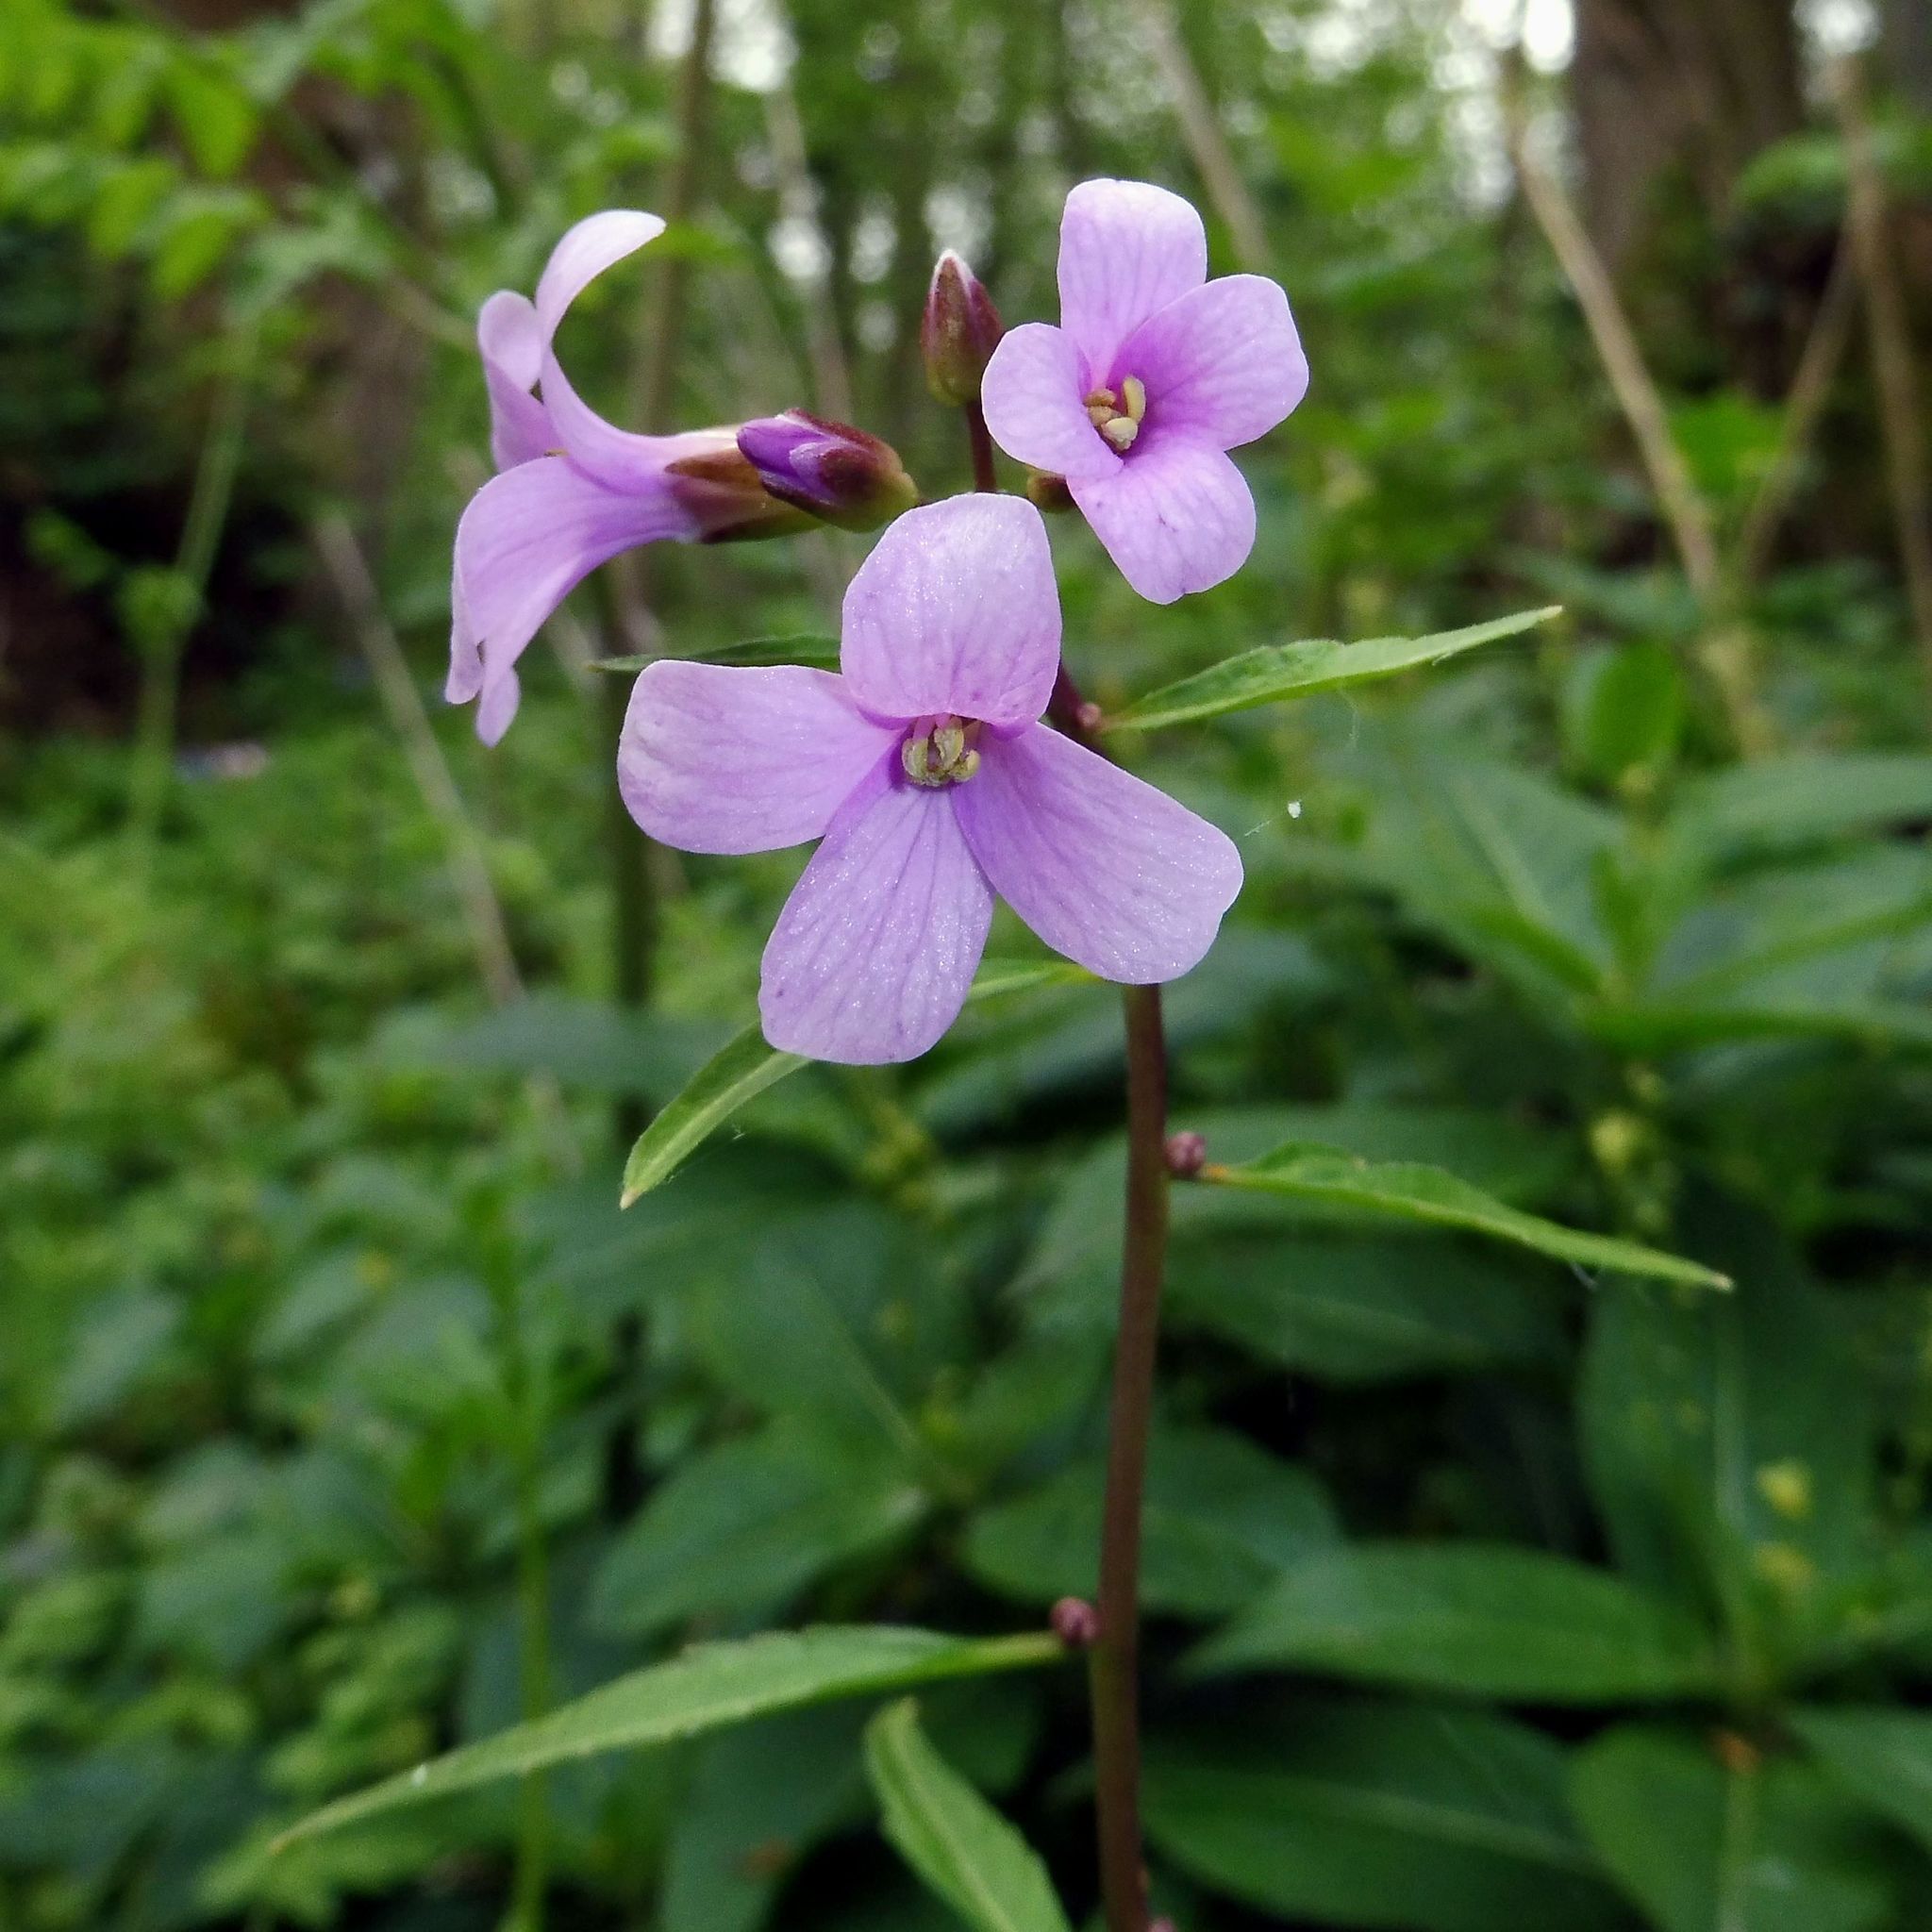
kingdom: Plantae
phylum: Tracheophyta
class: Magnoliopsida
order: Brassicales
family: Brassicaceae
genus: Cardamine
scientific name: Cardamine bulbifera
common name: Coralroot bittercress
